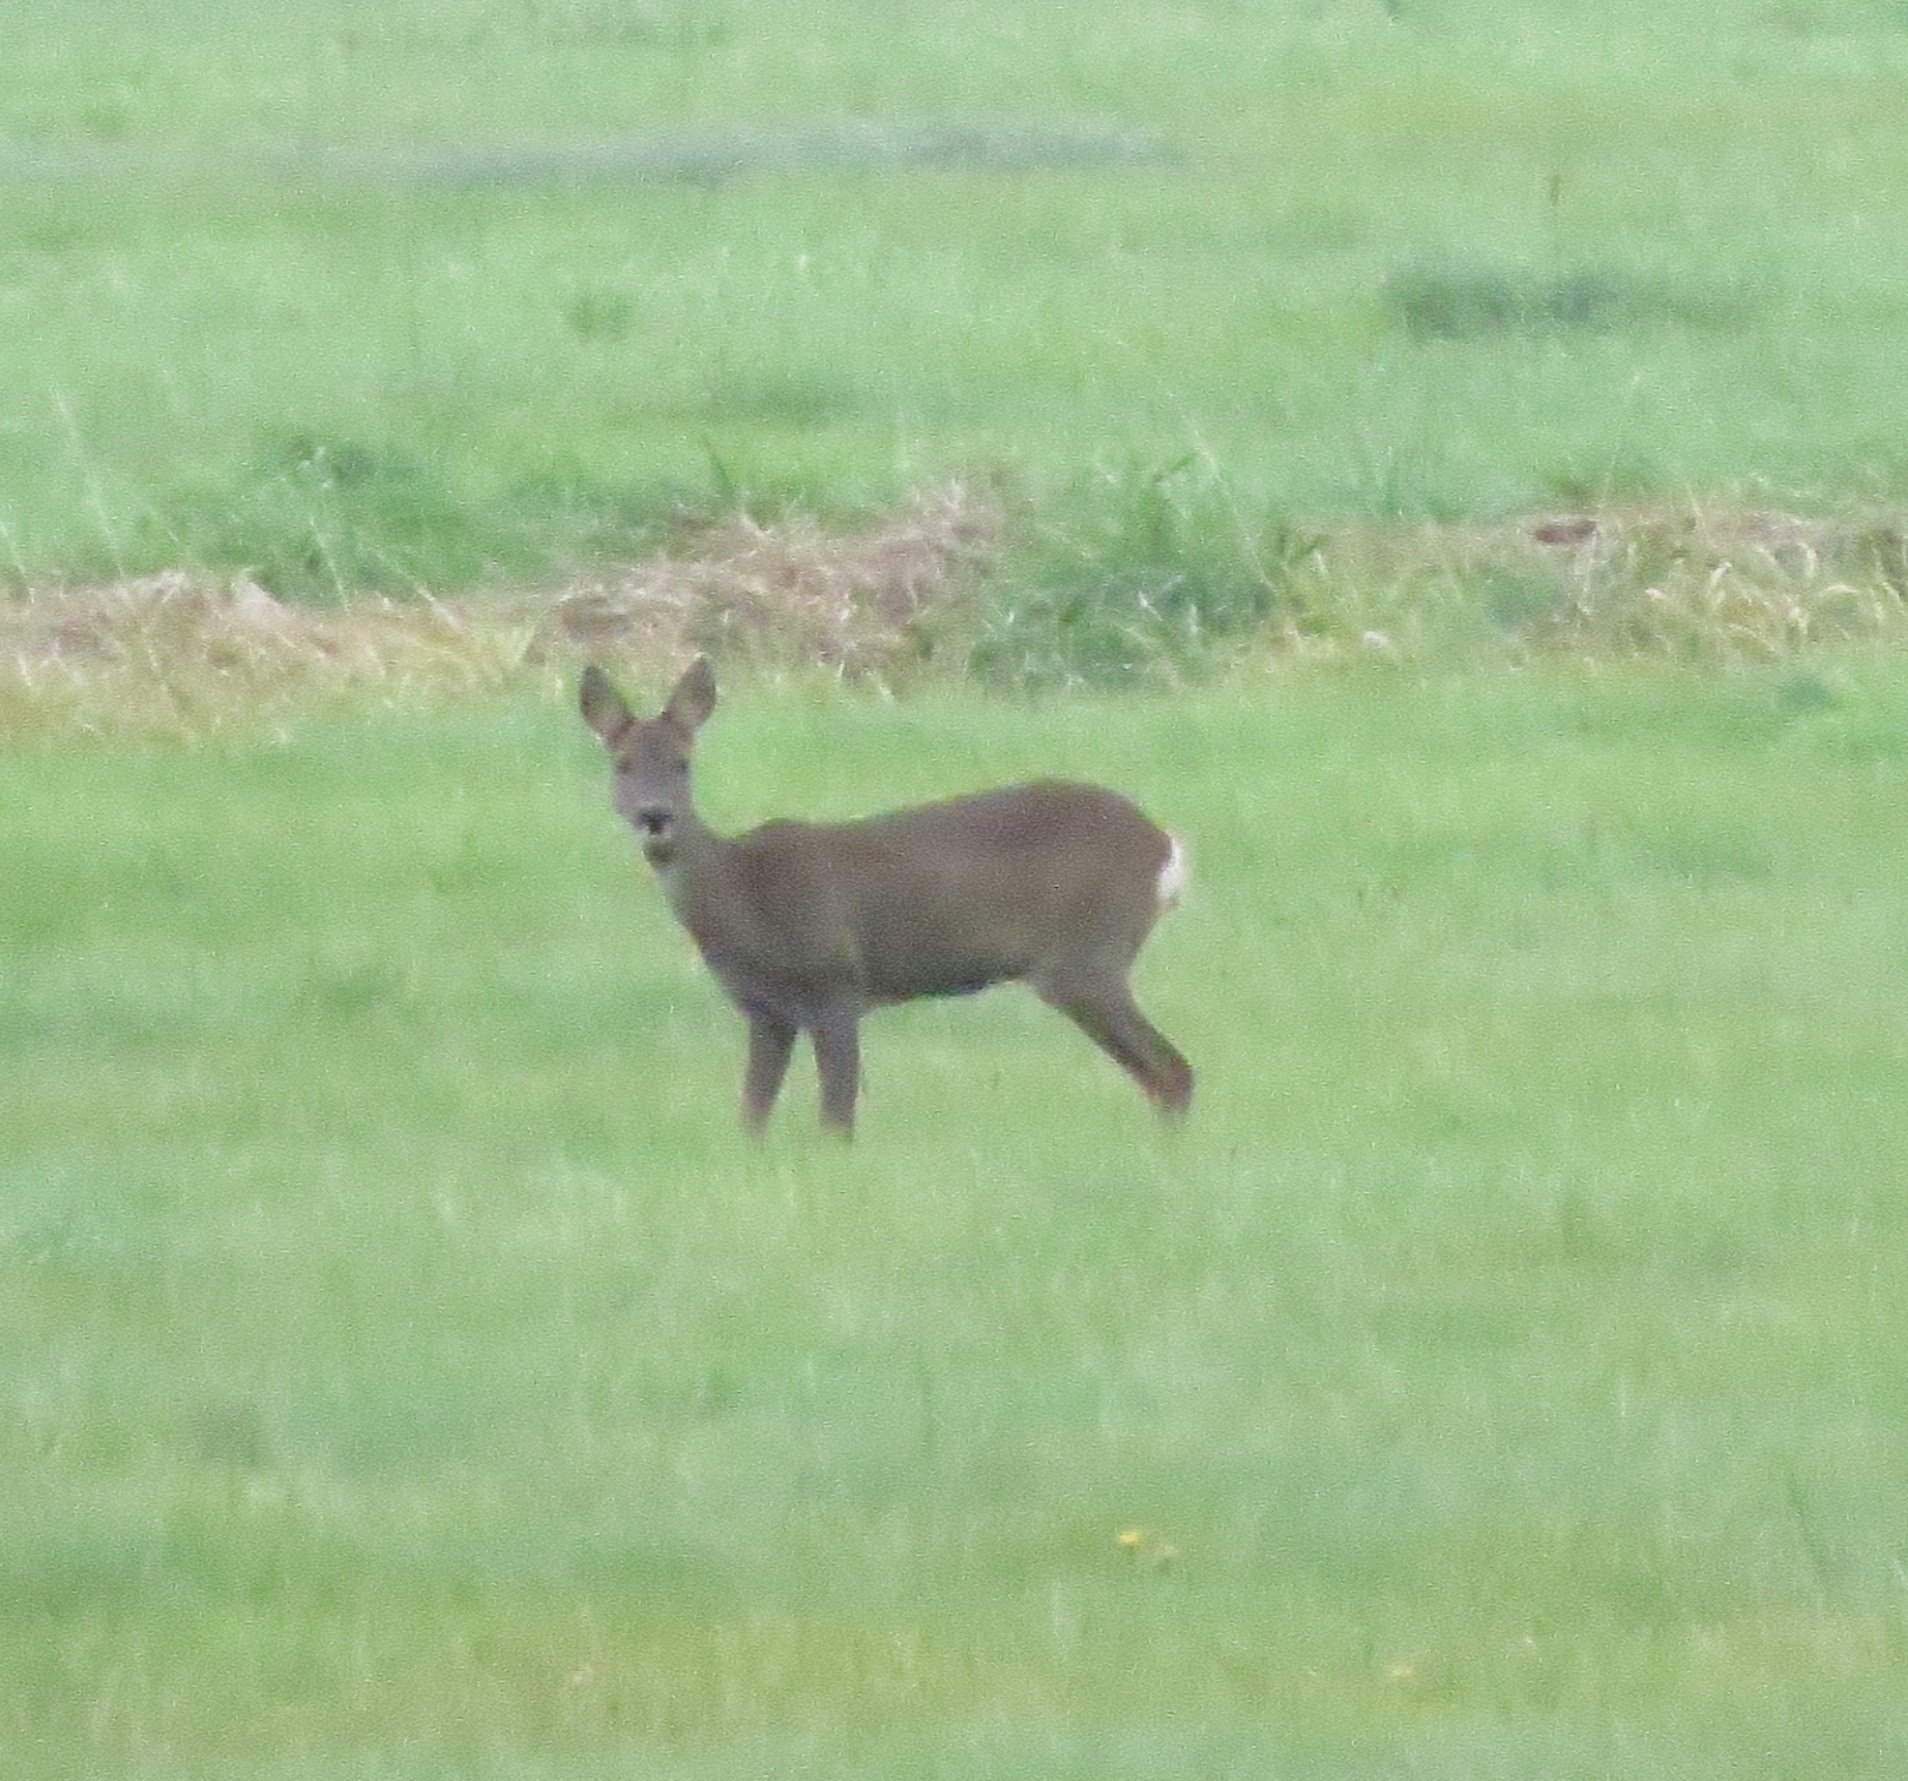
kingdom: Animalia
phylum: Chordata
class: Mammalia
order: Artiodactyla
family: Cervidae
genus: Capreolus
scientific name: Capreolus capreolus
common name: Western roe deer
